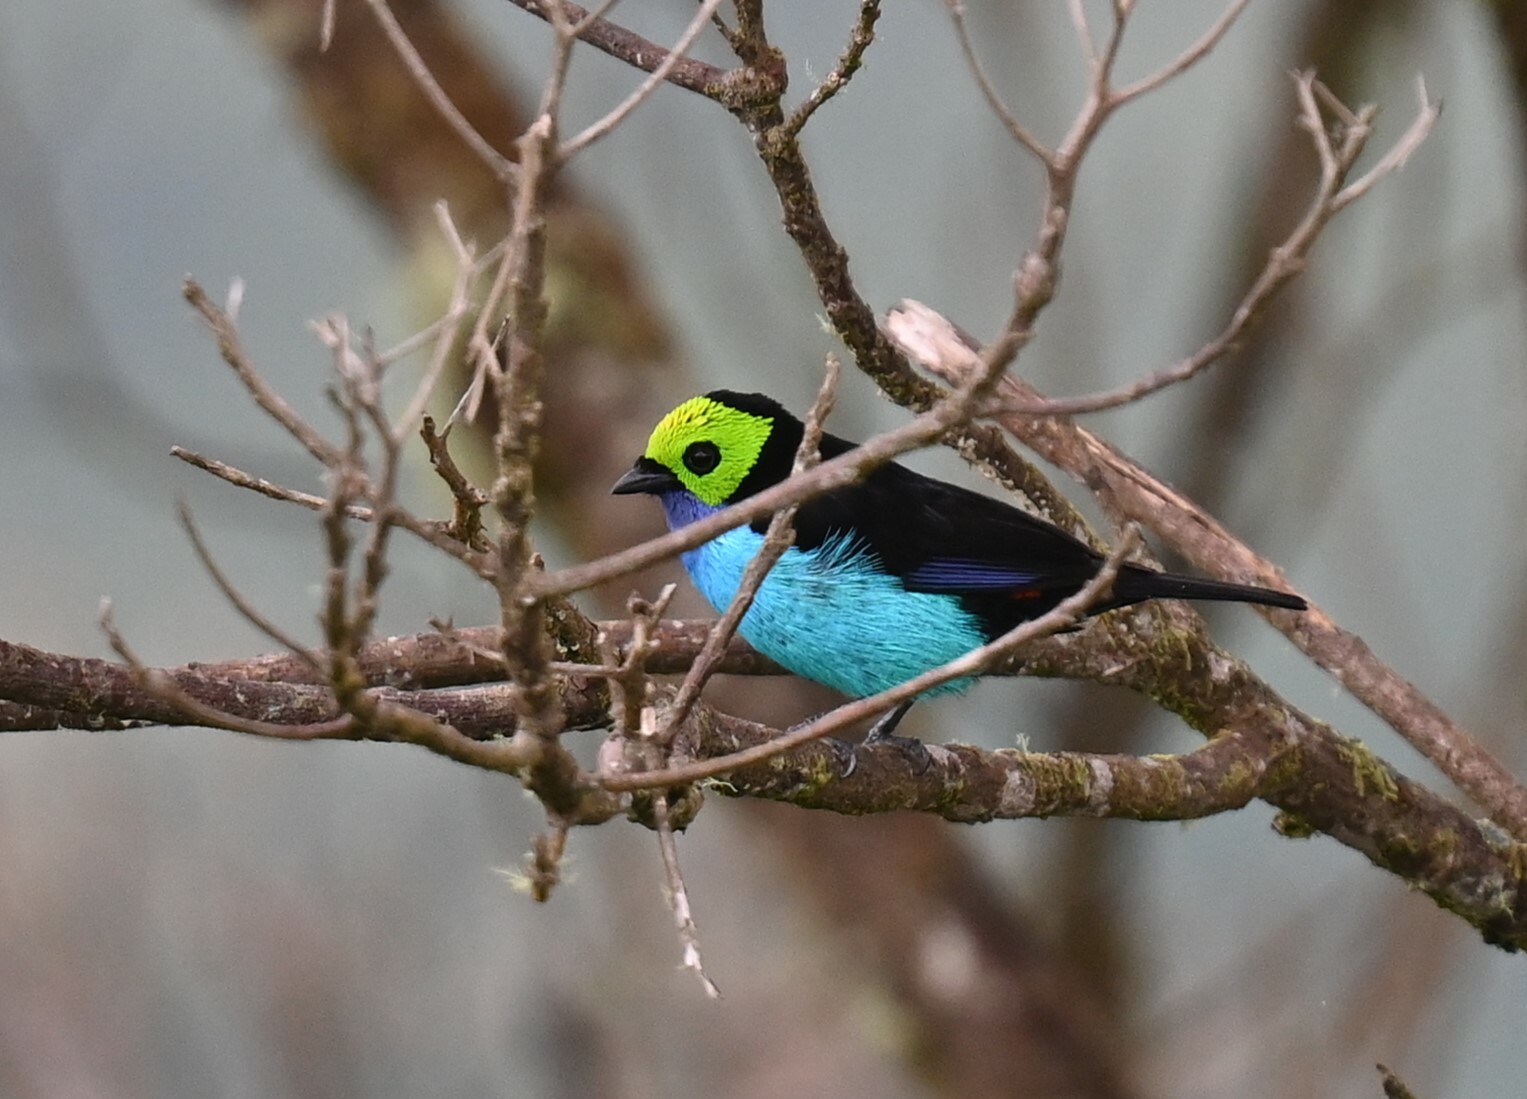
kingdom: Animalia
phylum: Chordata
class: Aves
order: Passeriformes
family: Thraupidae
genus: Tangara
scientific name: Tangara chilensis
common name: Paradise tanager
